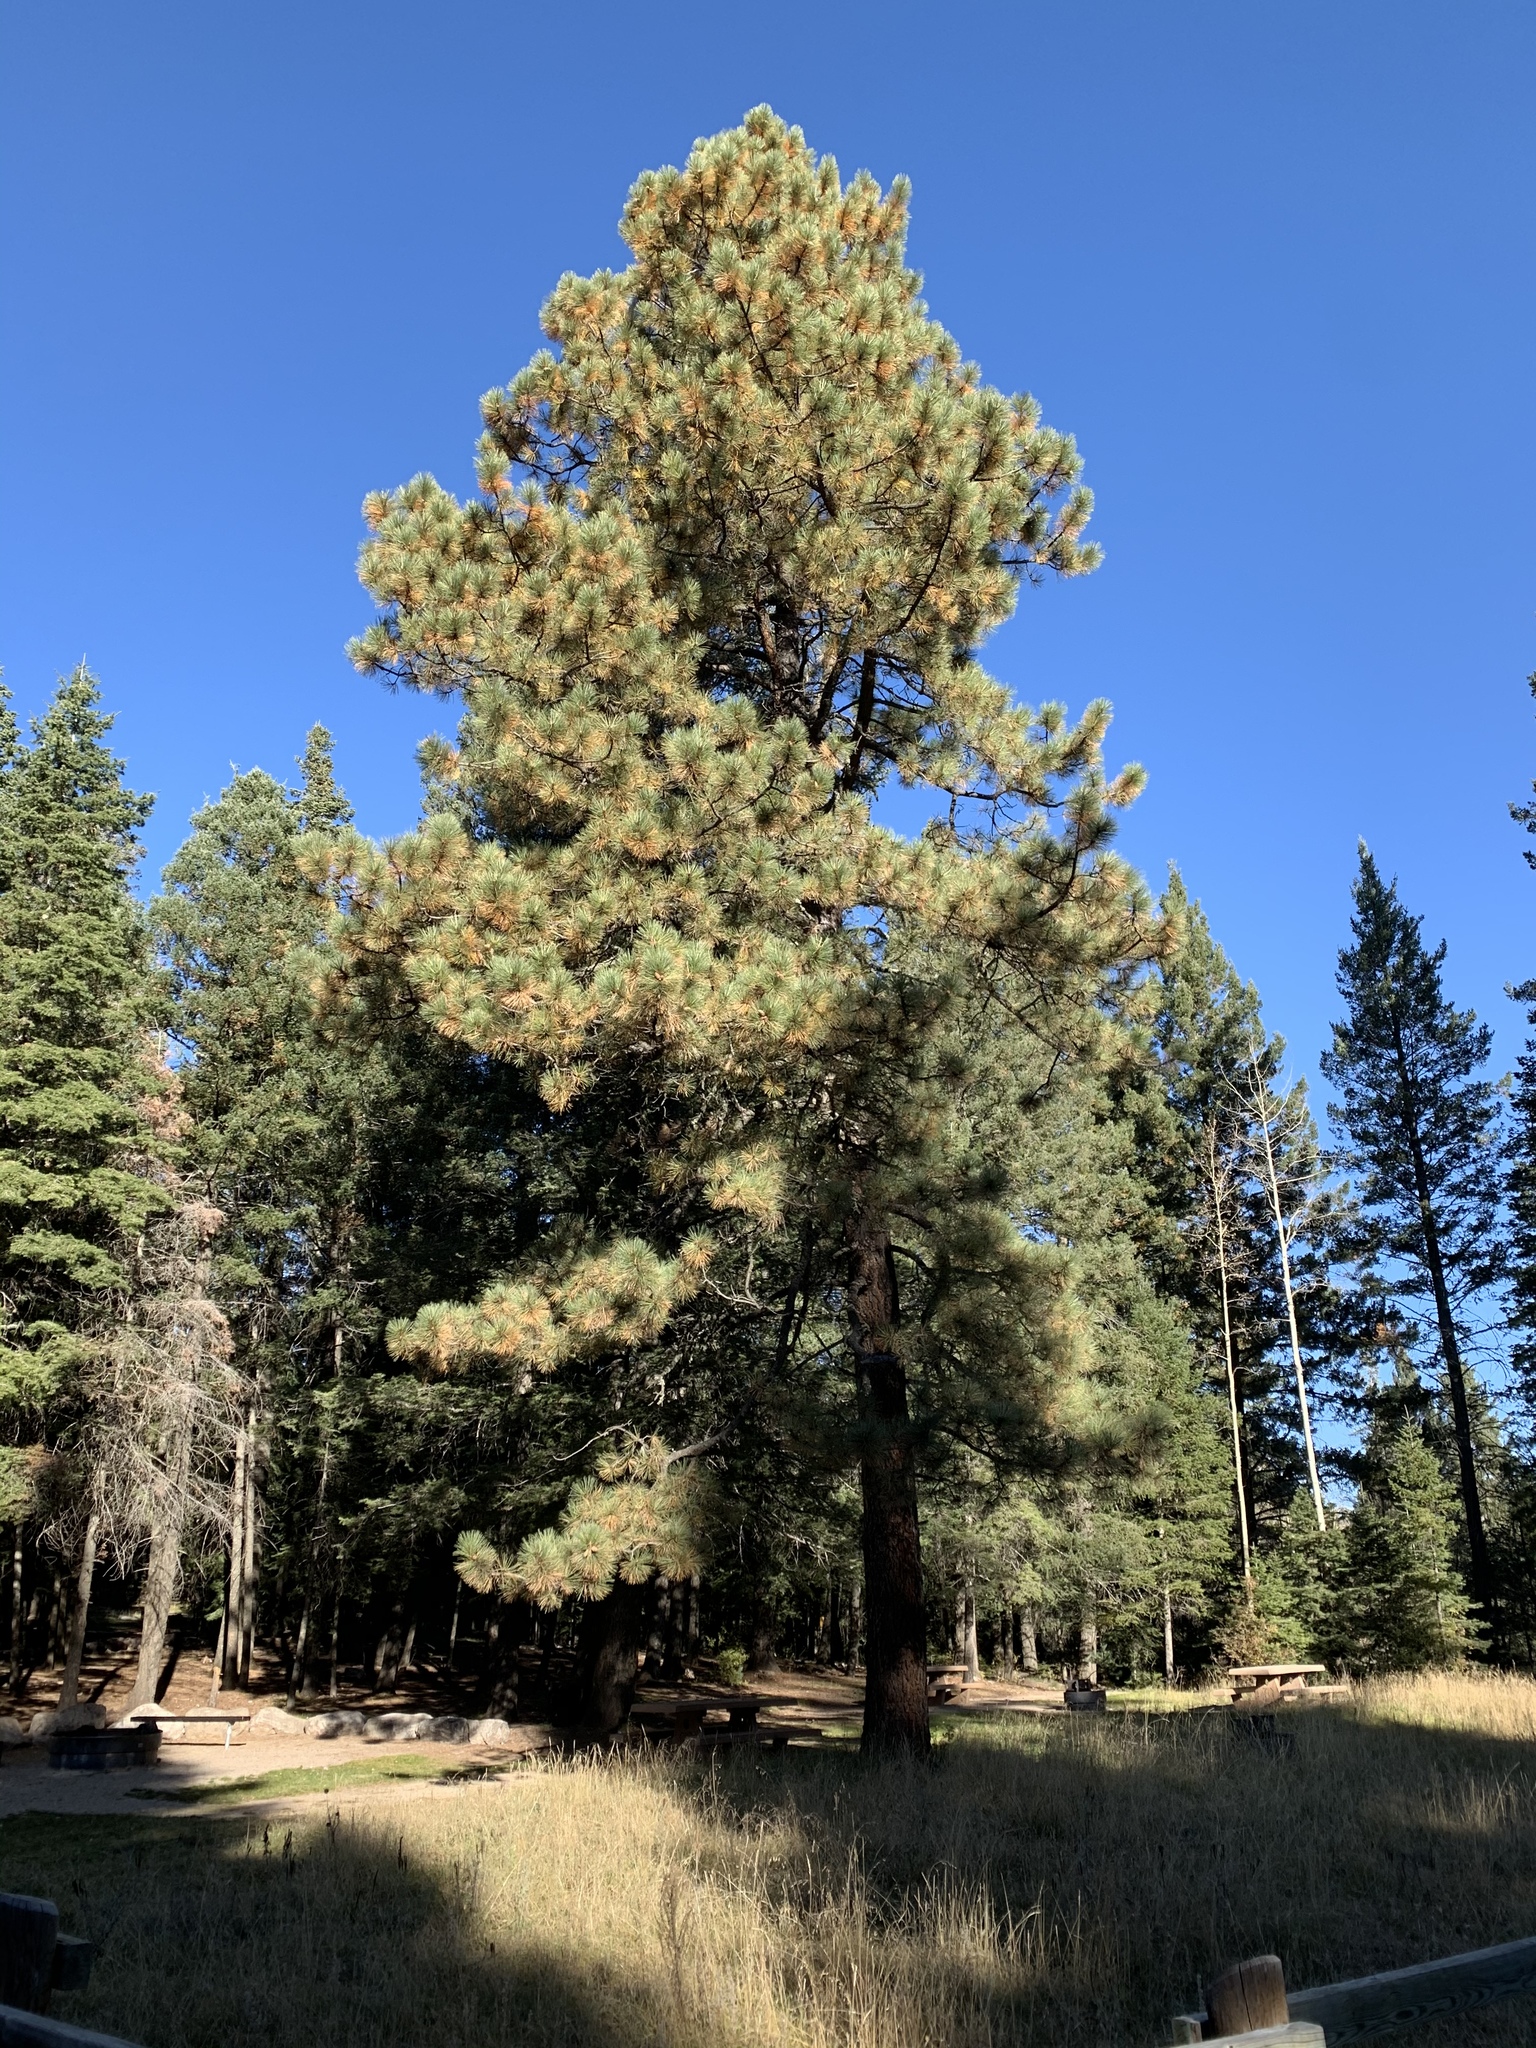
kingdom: Plantae
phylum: Tracheophyta
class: Pinopsida
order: Pinales
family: Pinaceae
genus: Pinus
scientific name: Pinus ponderosa
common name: Western yellow-pine
